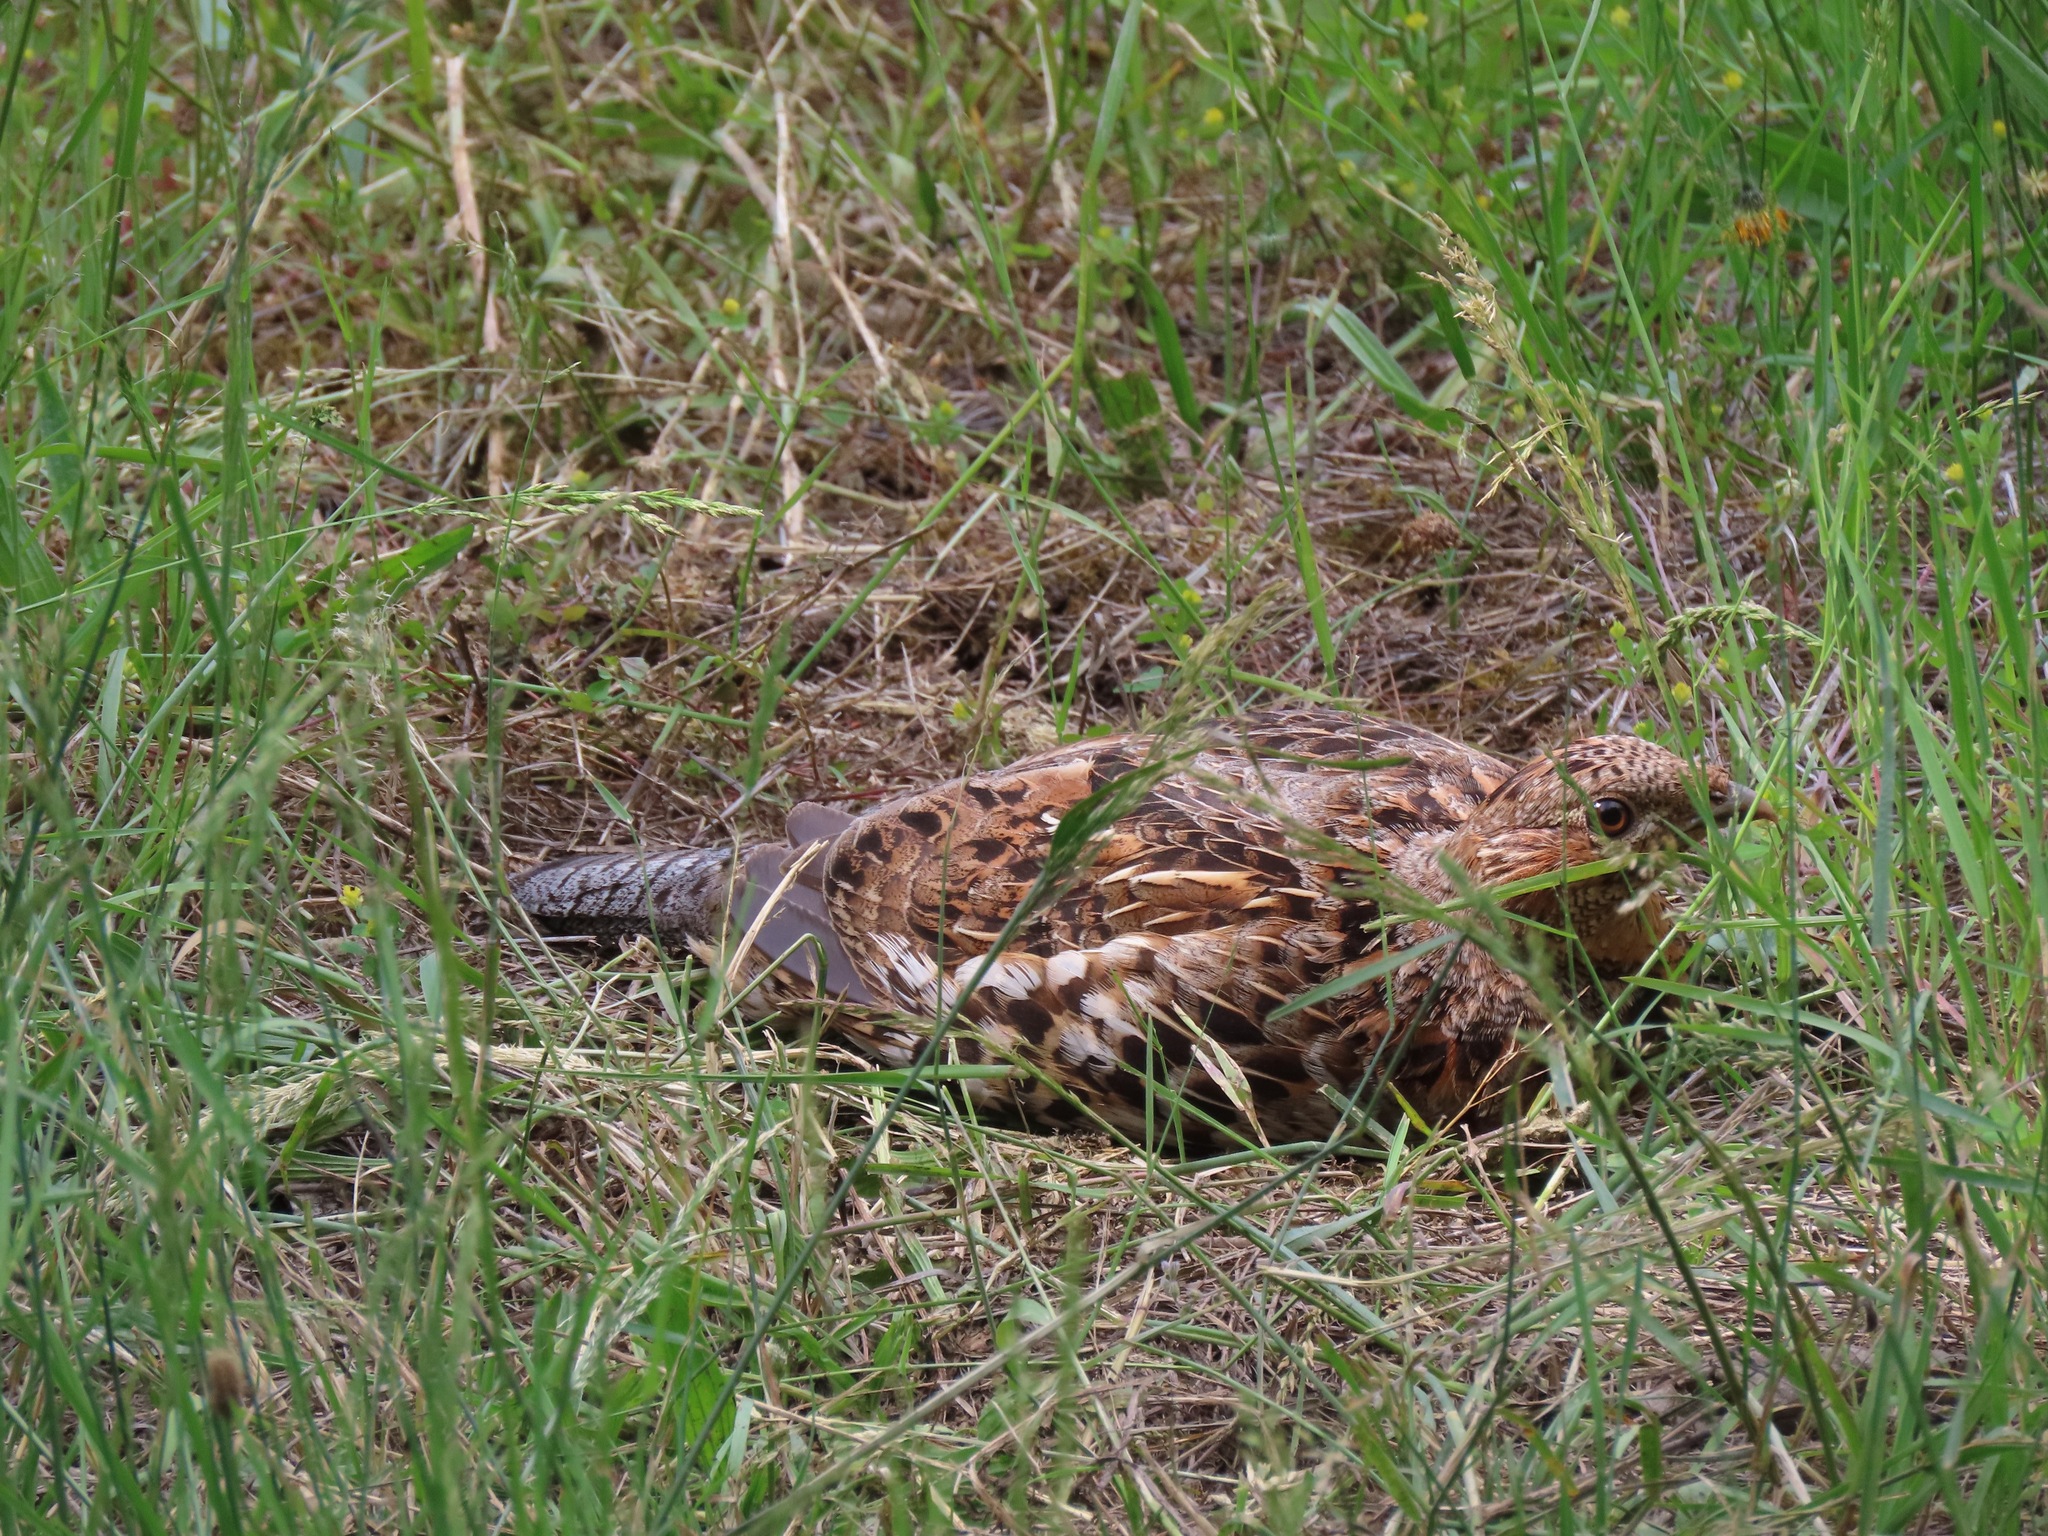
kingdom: Animalia
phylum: Chordata
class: Aves
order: Galliformes
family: Phasianidae
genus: Bonasa
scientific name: Bonasa umbellus
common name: Ruffed grouse
